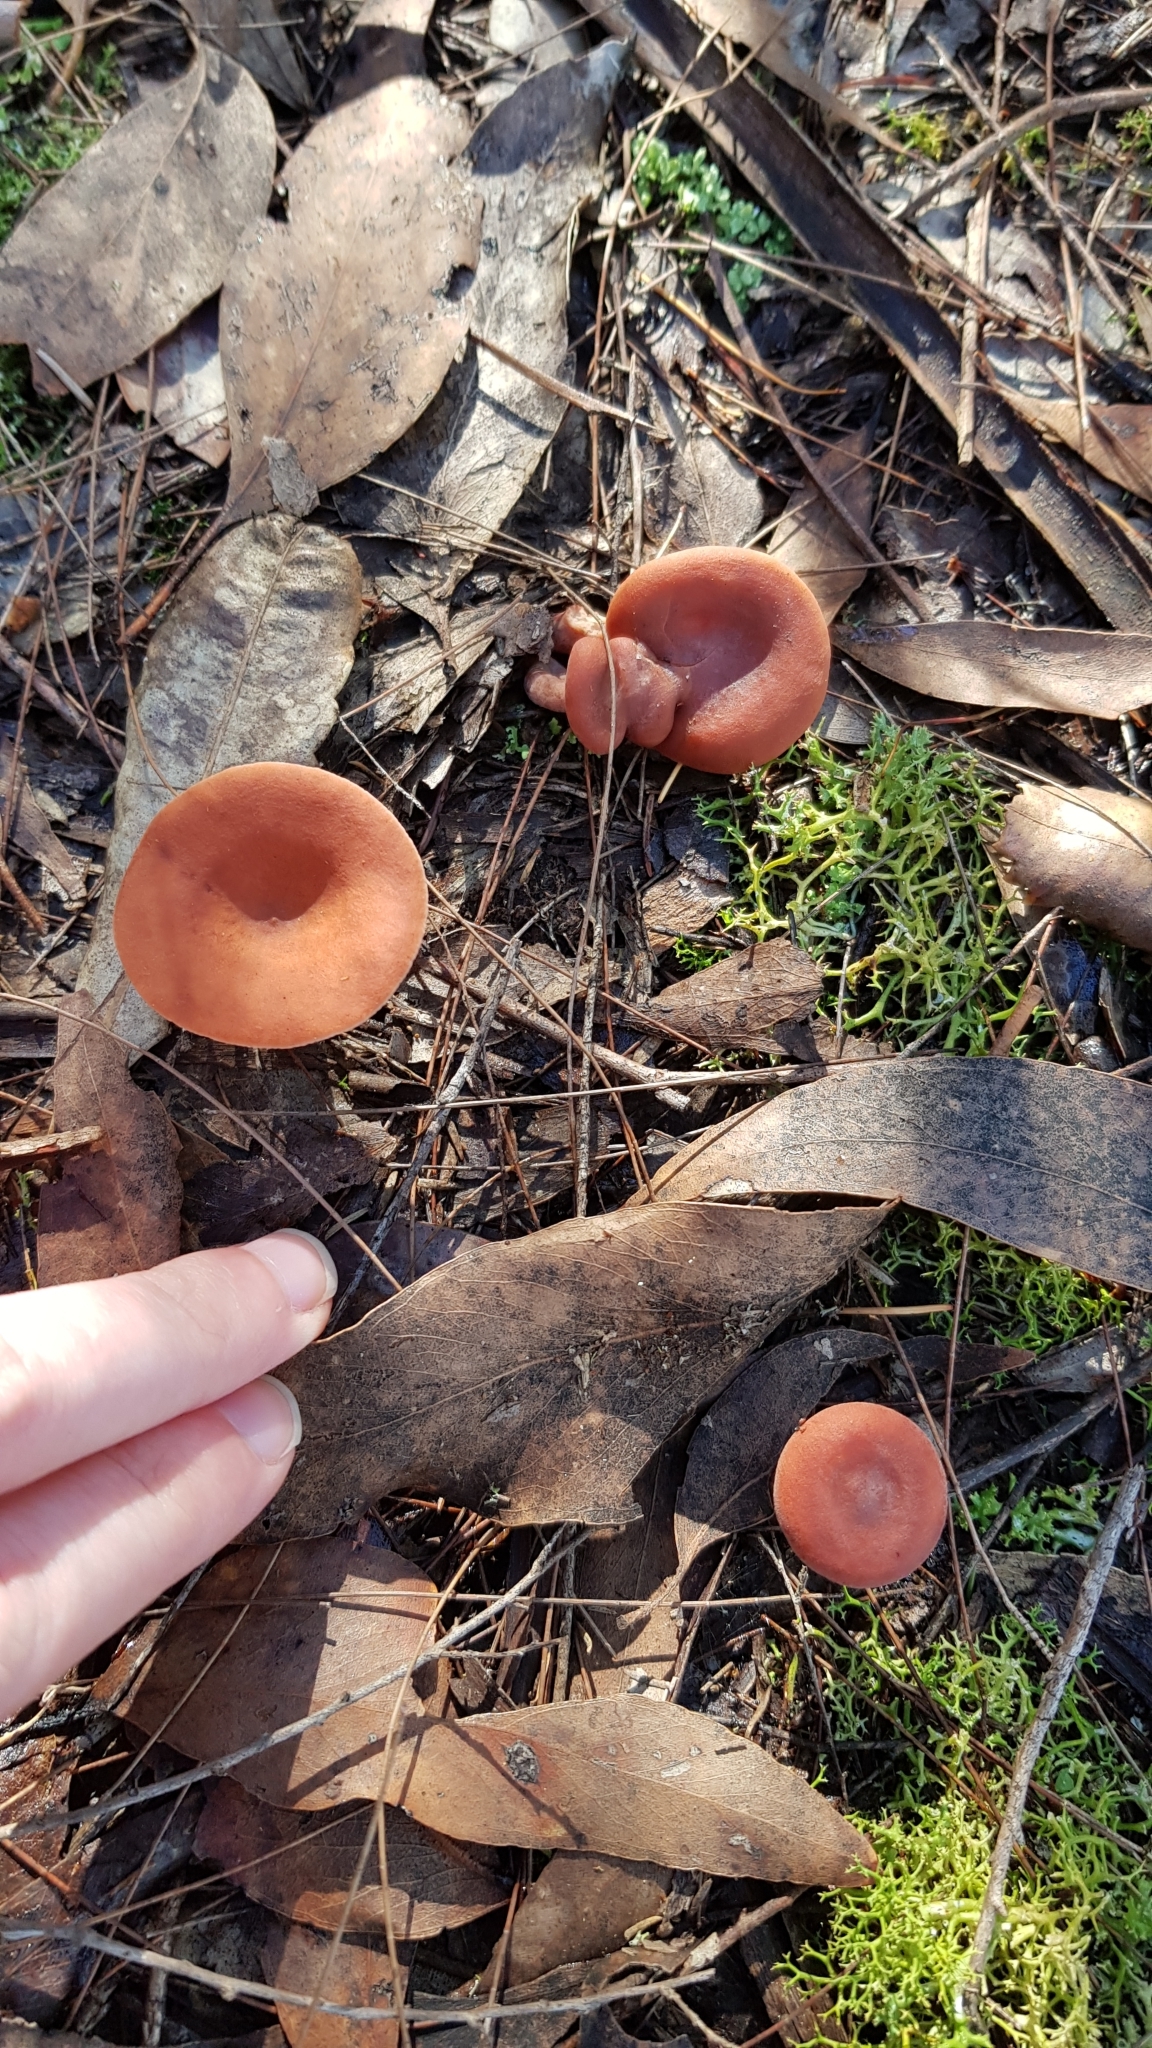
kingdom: Fungi
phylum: Basidiomycota
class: Agaricomycetes
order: Russulales
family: Russulaceae
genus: Lactarius
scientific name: Lactarius eucalypti
